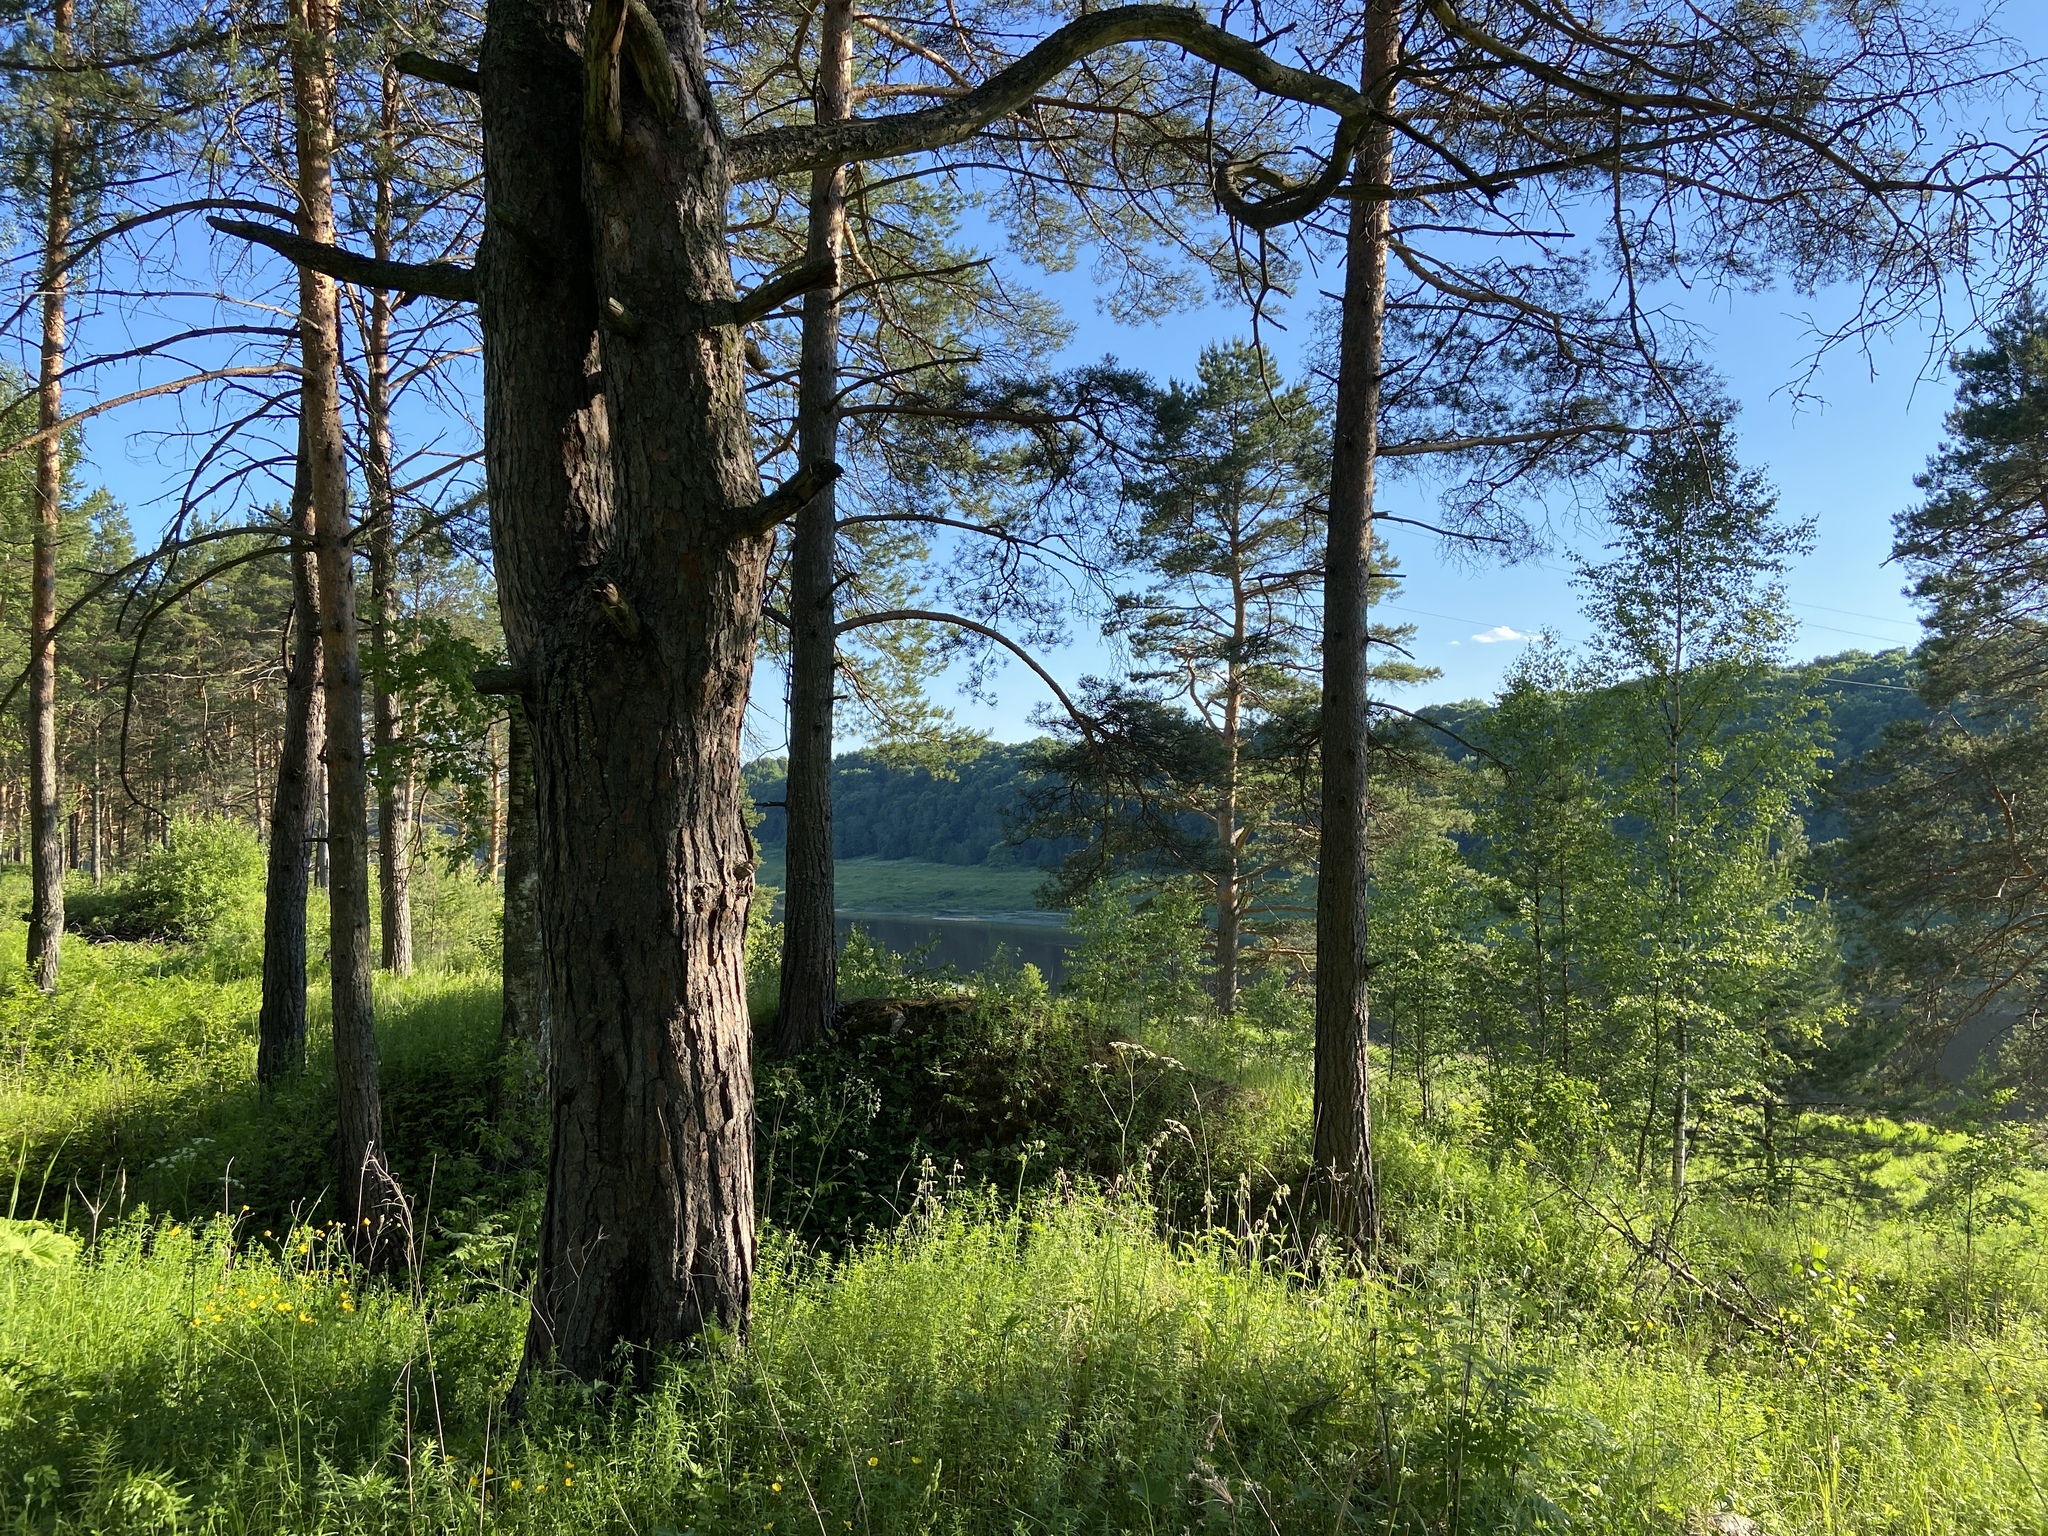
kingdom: Plantae
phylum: Tracheophyta
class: Pinopsida
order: Pinales
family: Pinaceae
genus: Pinus
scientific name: Pinus sylvestris
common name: Scots pine
